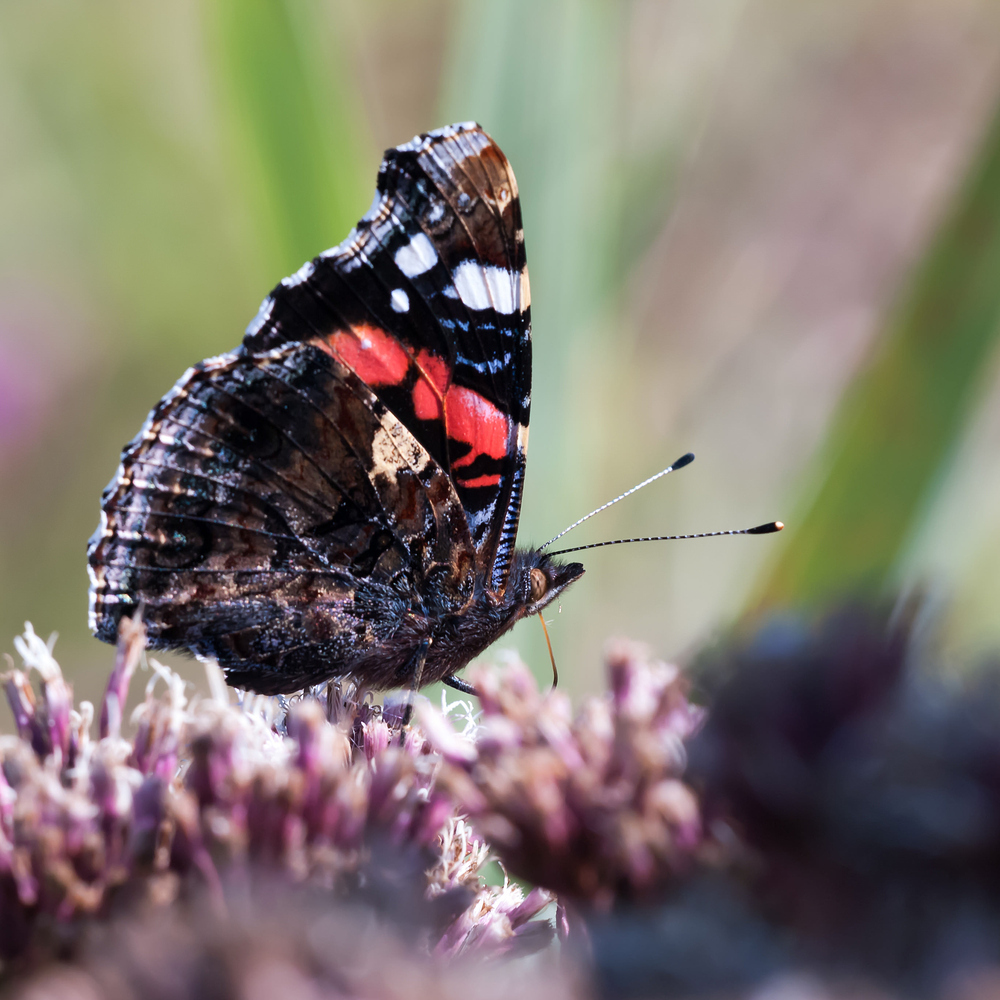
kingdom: Animalia
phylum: Arthropoda
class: Insecta
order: Lepidoptera
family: Nymphalidae
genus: Vanessa
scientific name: Vanessa atalanta
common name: Red admiral
